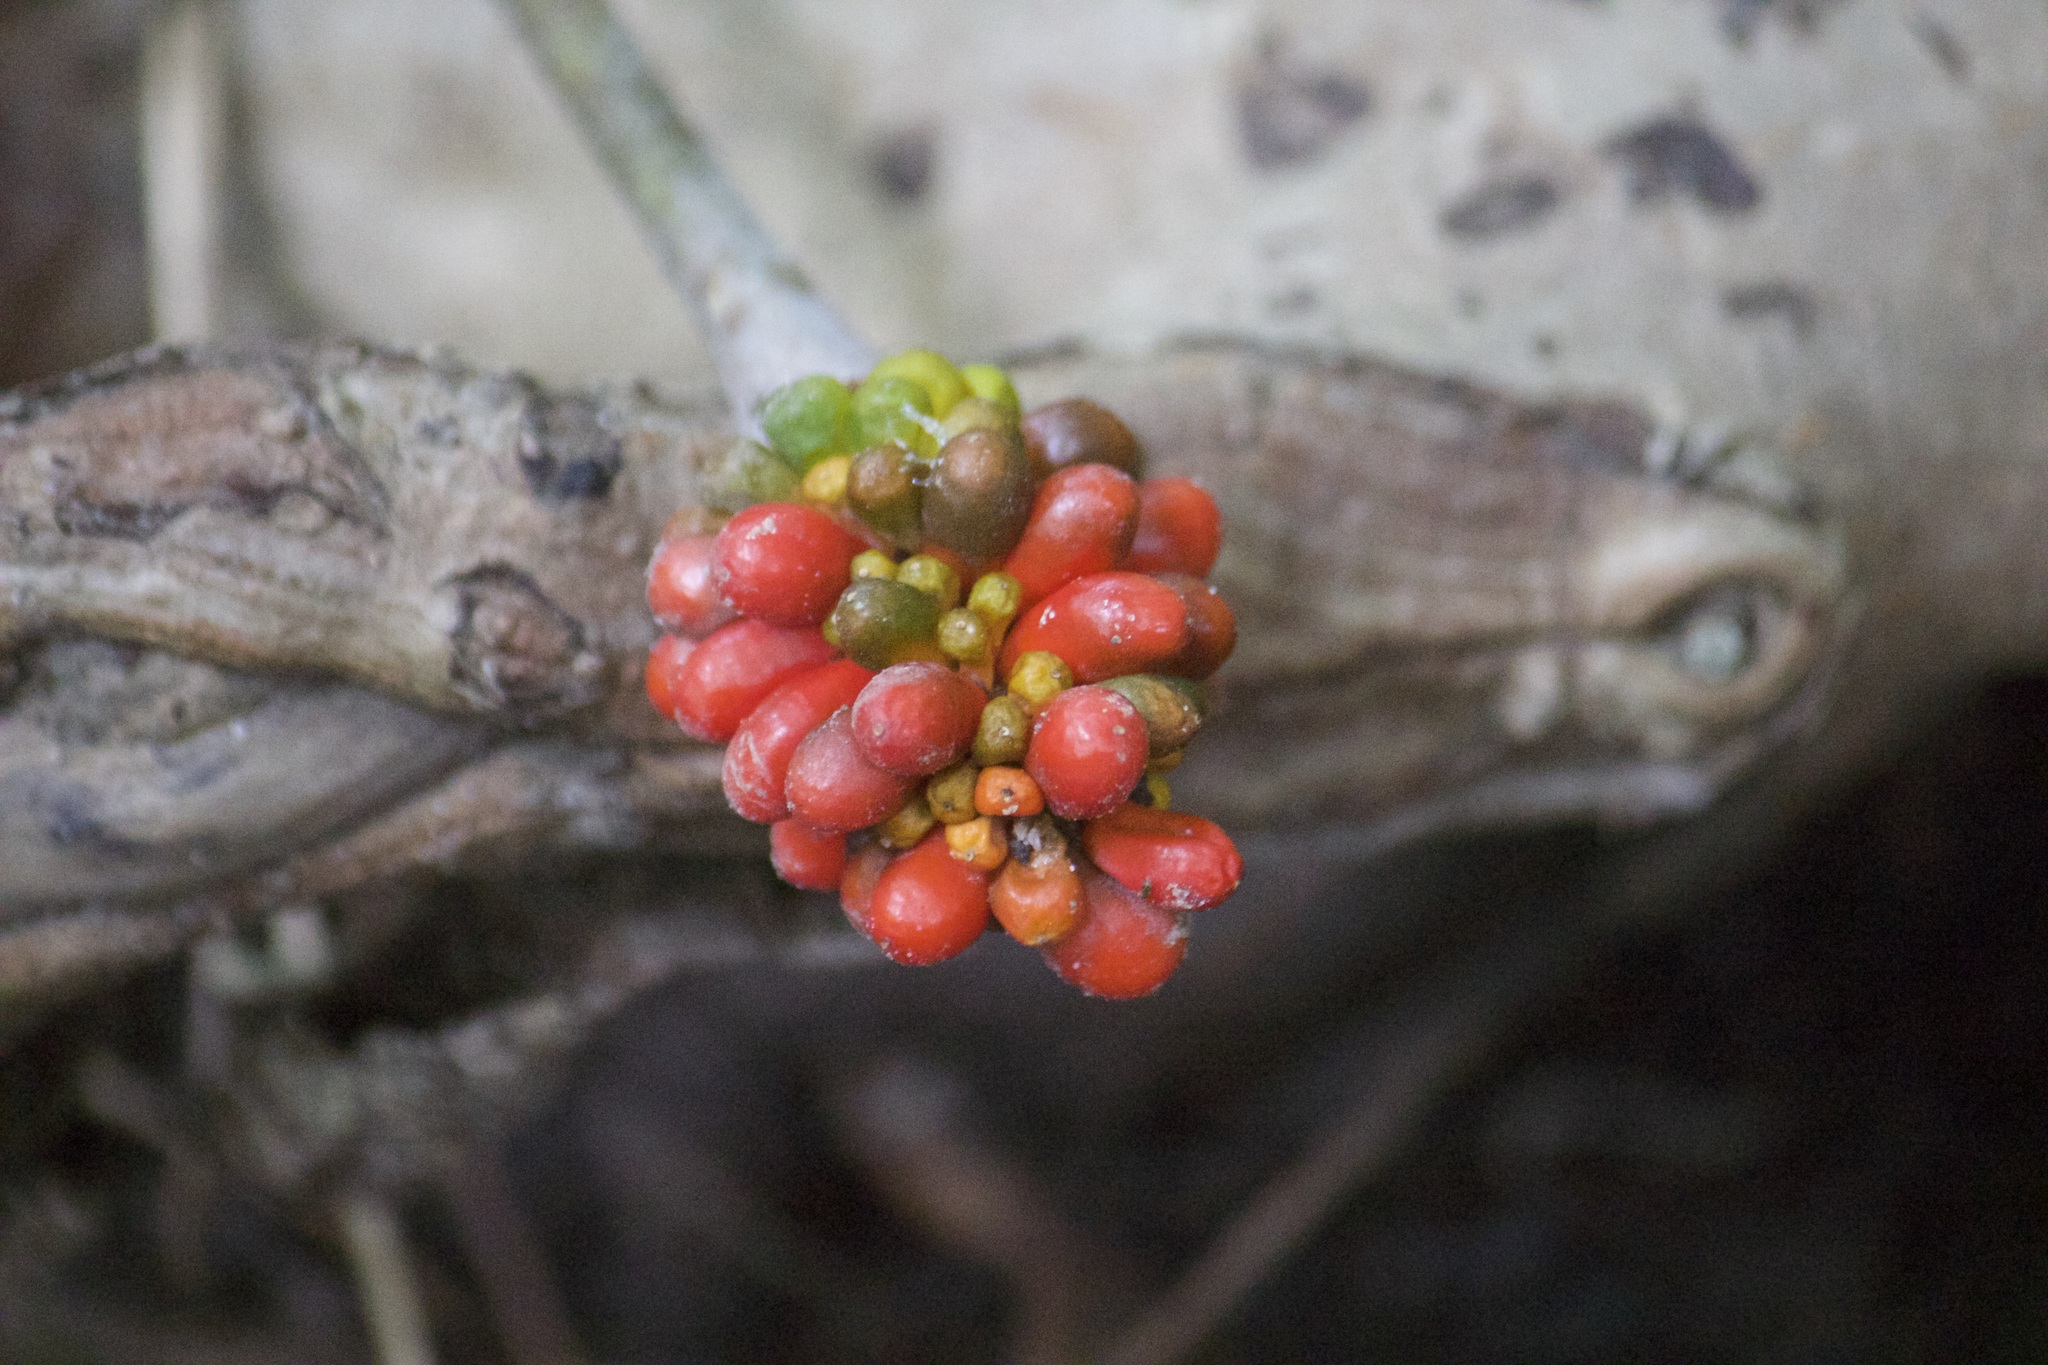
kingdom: Plantae
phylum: Tracheophyta
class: Liliopsida
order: Alismatales
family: Araceae
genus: Arisaema
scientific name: Arisaema triphyllum
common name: Jack-in-the-pulpit
